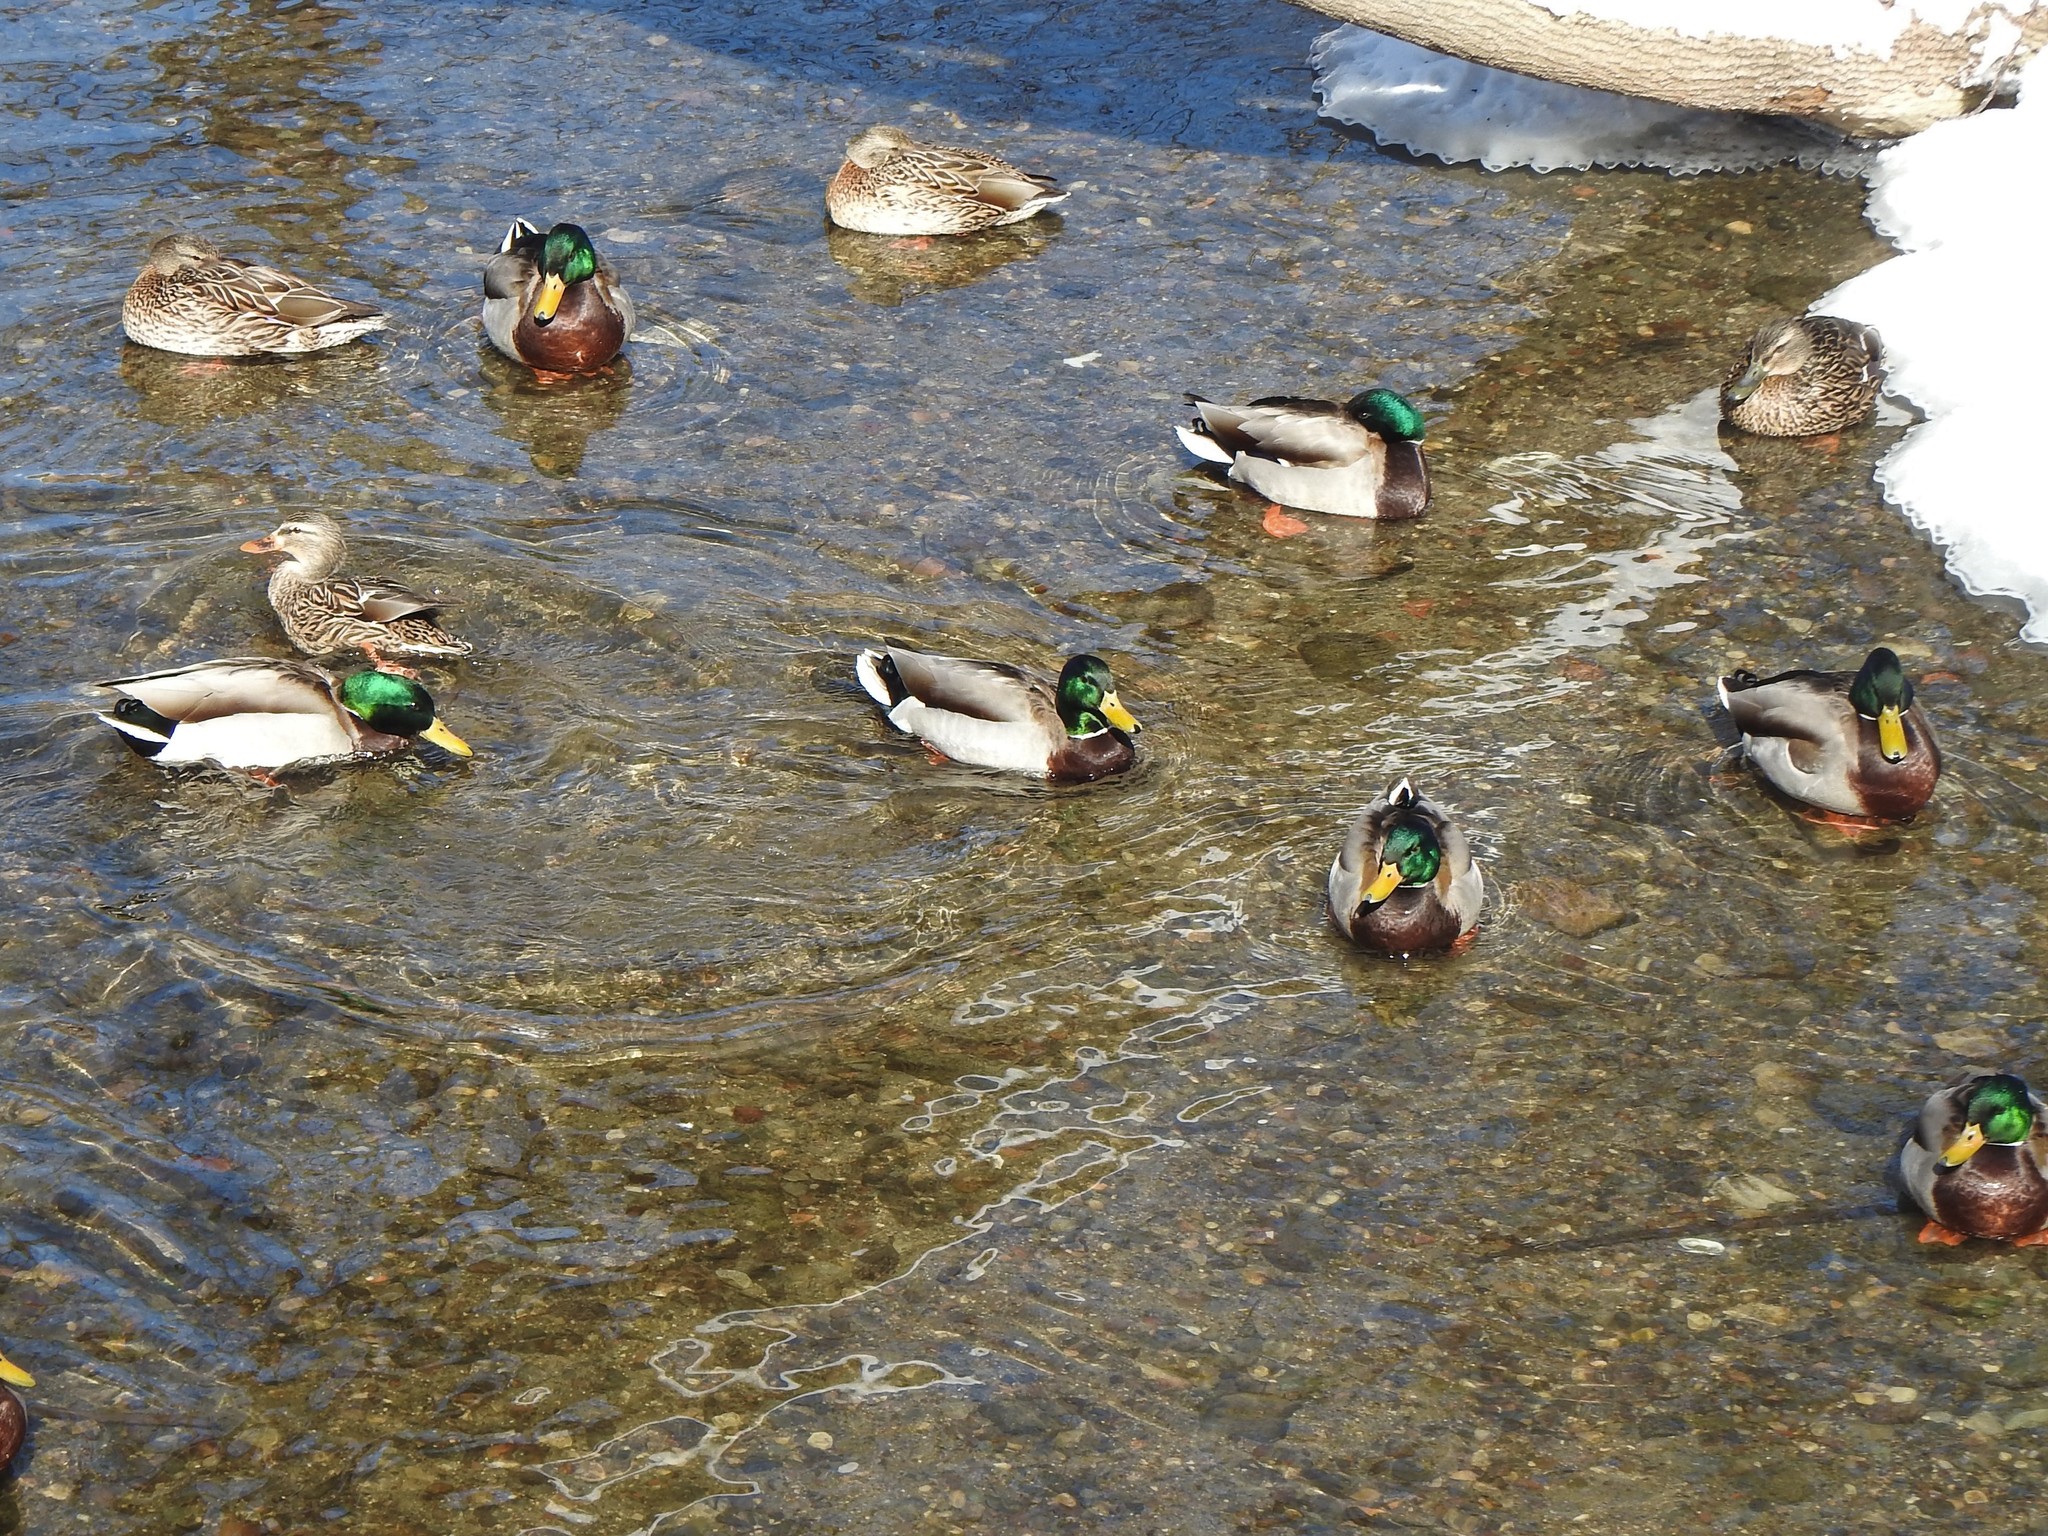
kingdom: Animalia
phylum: Chordata
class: Aves
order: Anseriformes
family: Anatidae
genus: Anas
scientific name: Anas platyrhynchos
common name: Mallard
